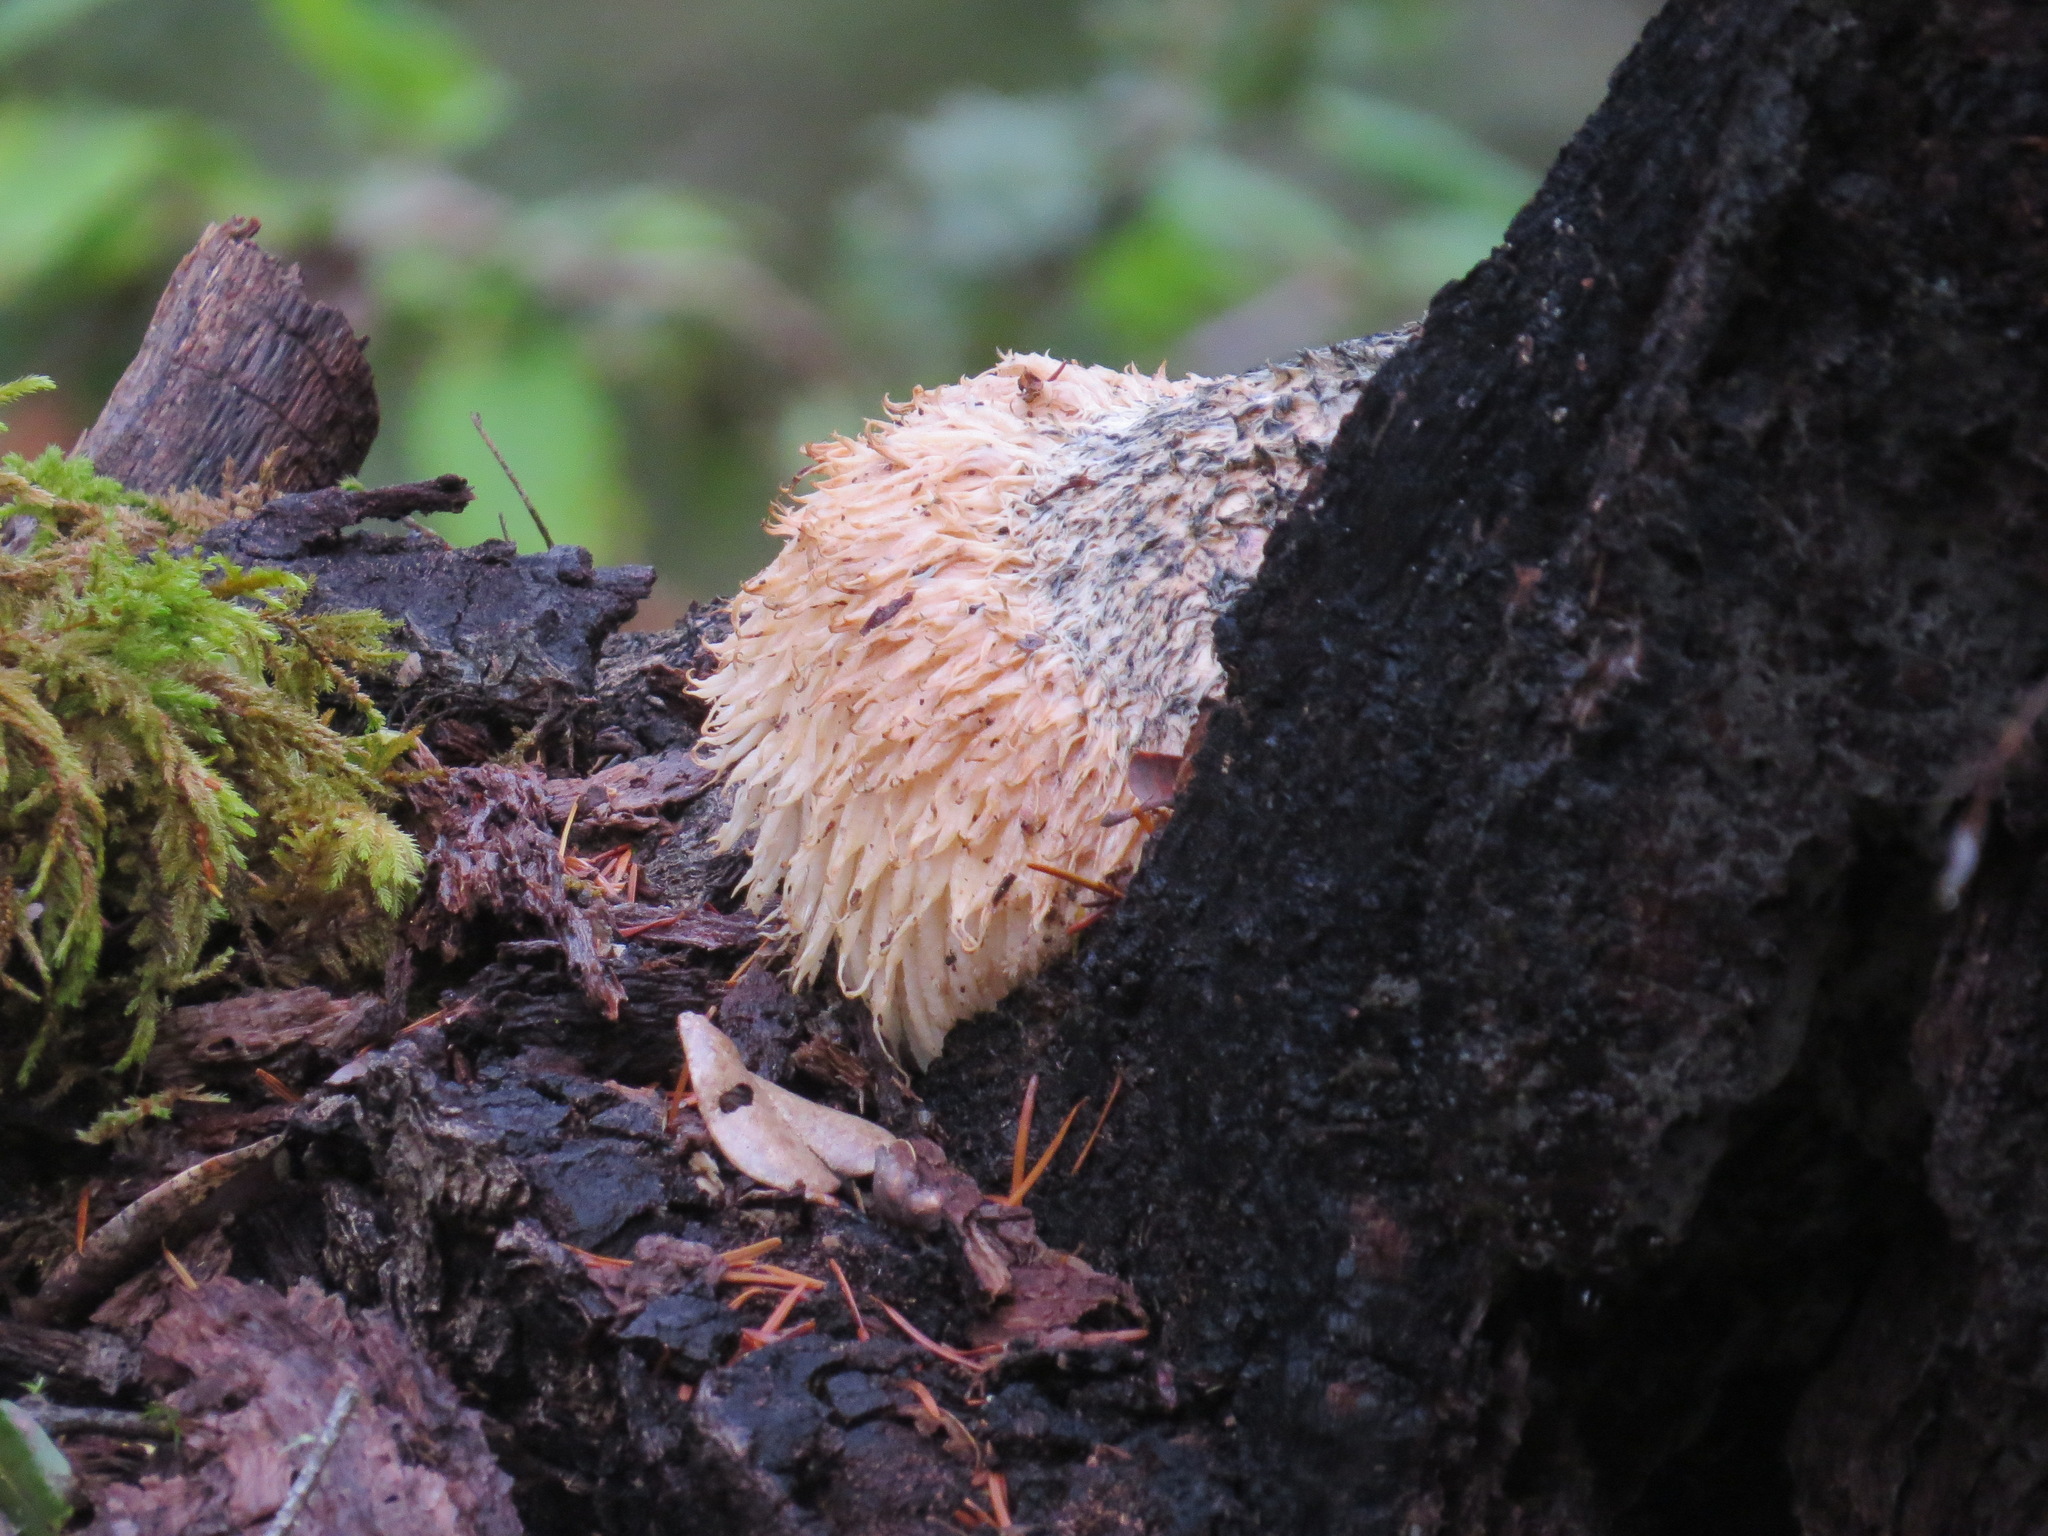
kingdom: Fungi
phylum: Basidiomycota
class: Agaricomycetes
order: Russulales
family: Hericiaceae
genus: Hericium
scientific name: Hericium erinaceus
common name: Bearded tooth
